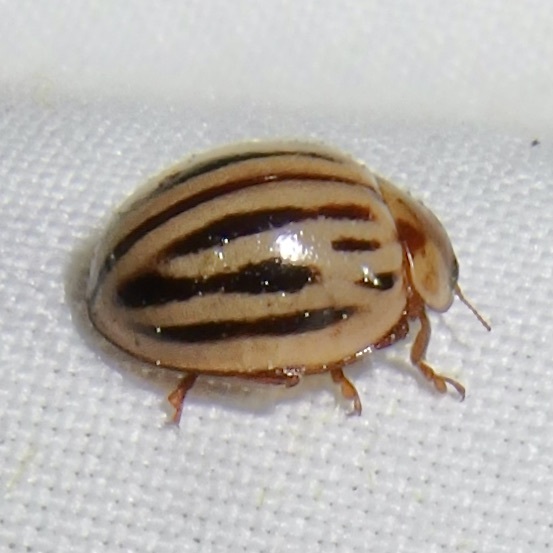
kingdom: Animalia
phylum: Arthropoda
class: Insecta
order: Coleoptera
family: Coccinellidae
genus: Myzia
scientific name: Myzia interrupta
